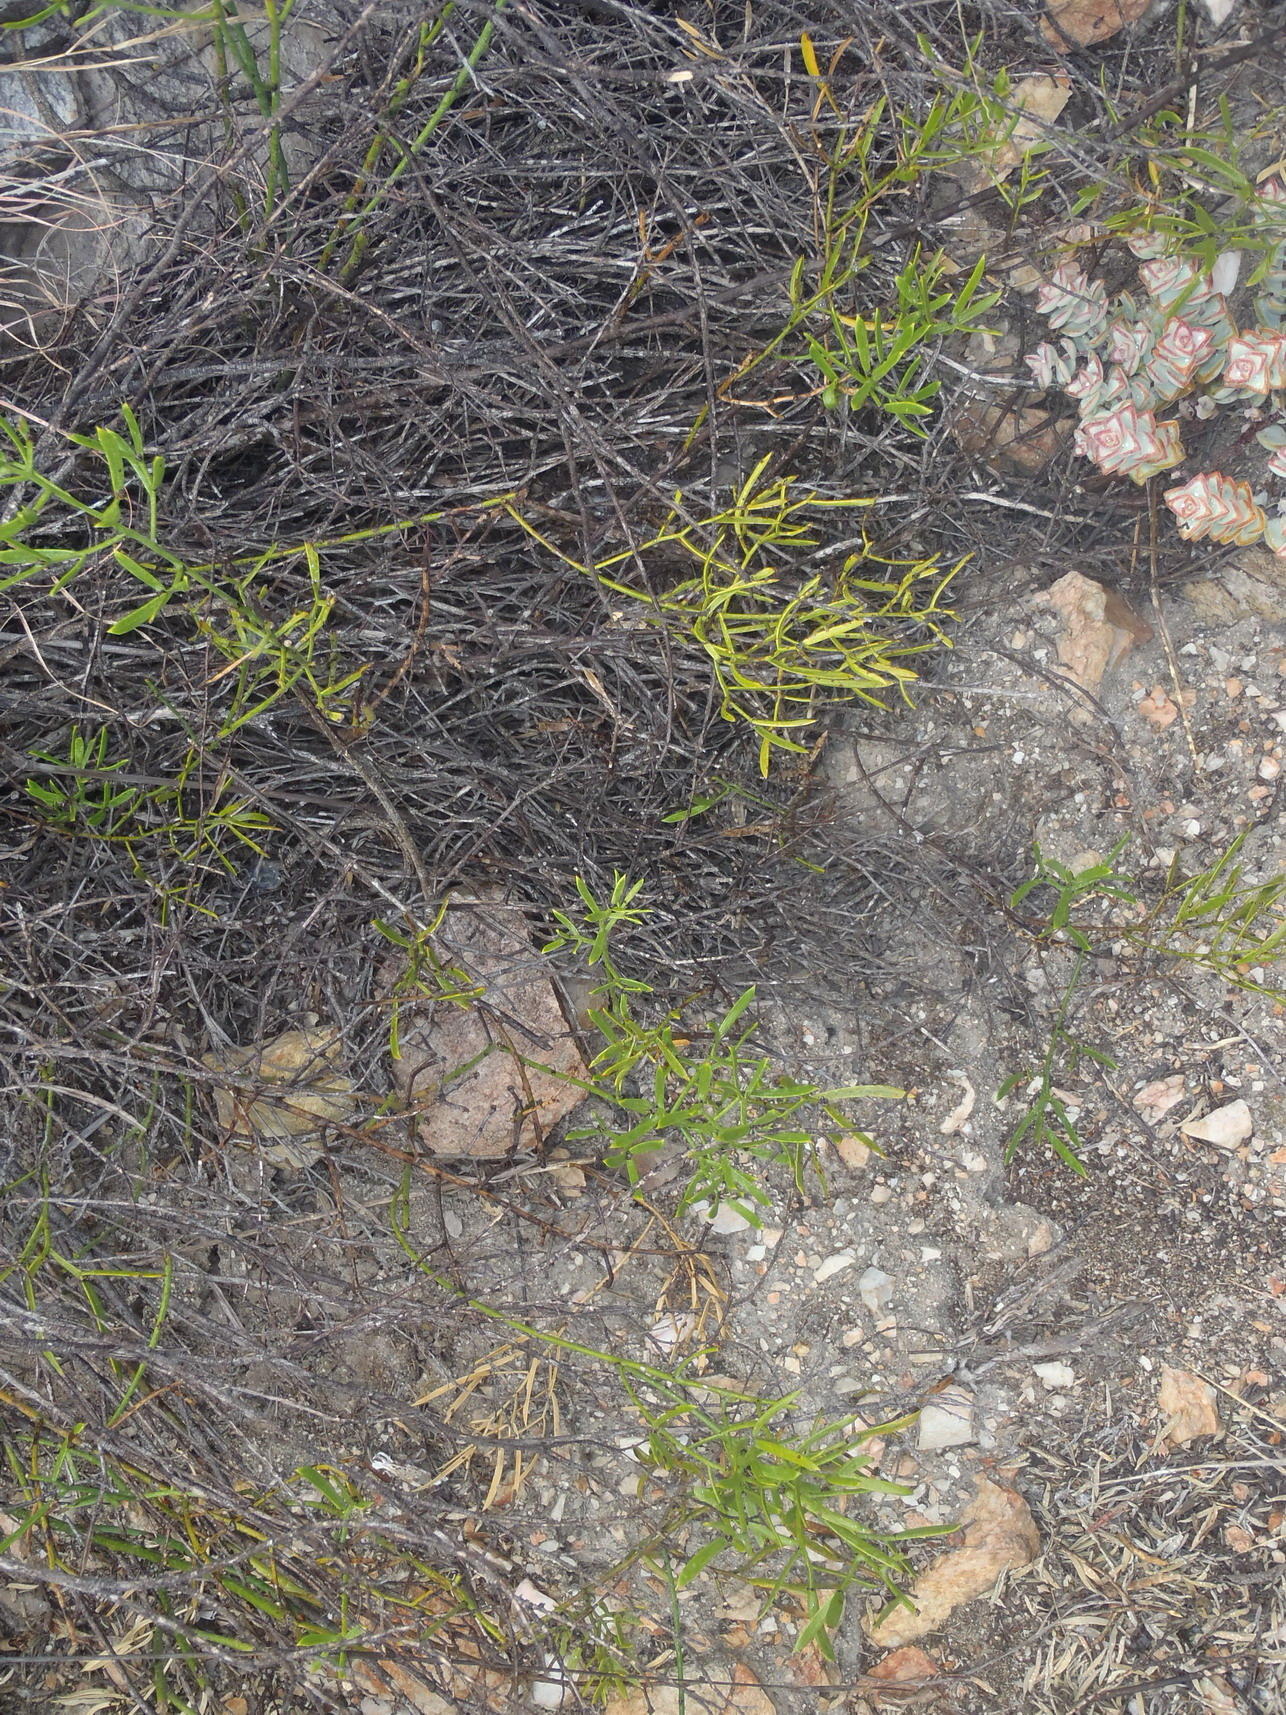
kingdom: Plantae
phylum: Tracheophyta
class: Liliopsida
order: Asparagales
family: Asparagaceae
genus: Asparagus
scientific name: Asparagus striatus
